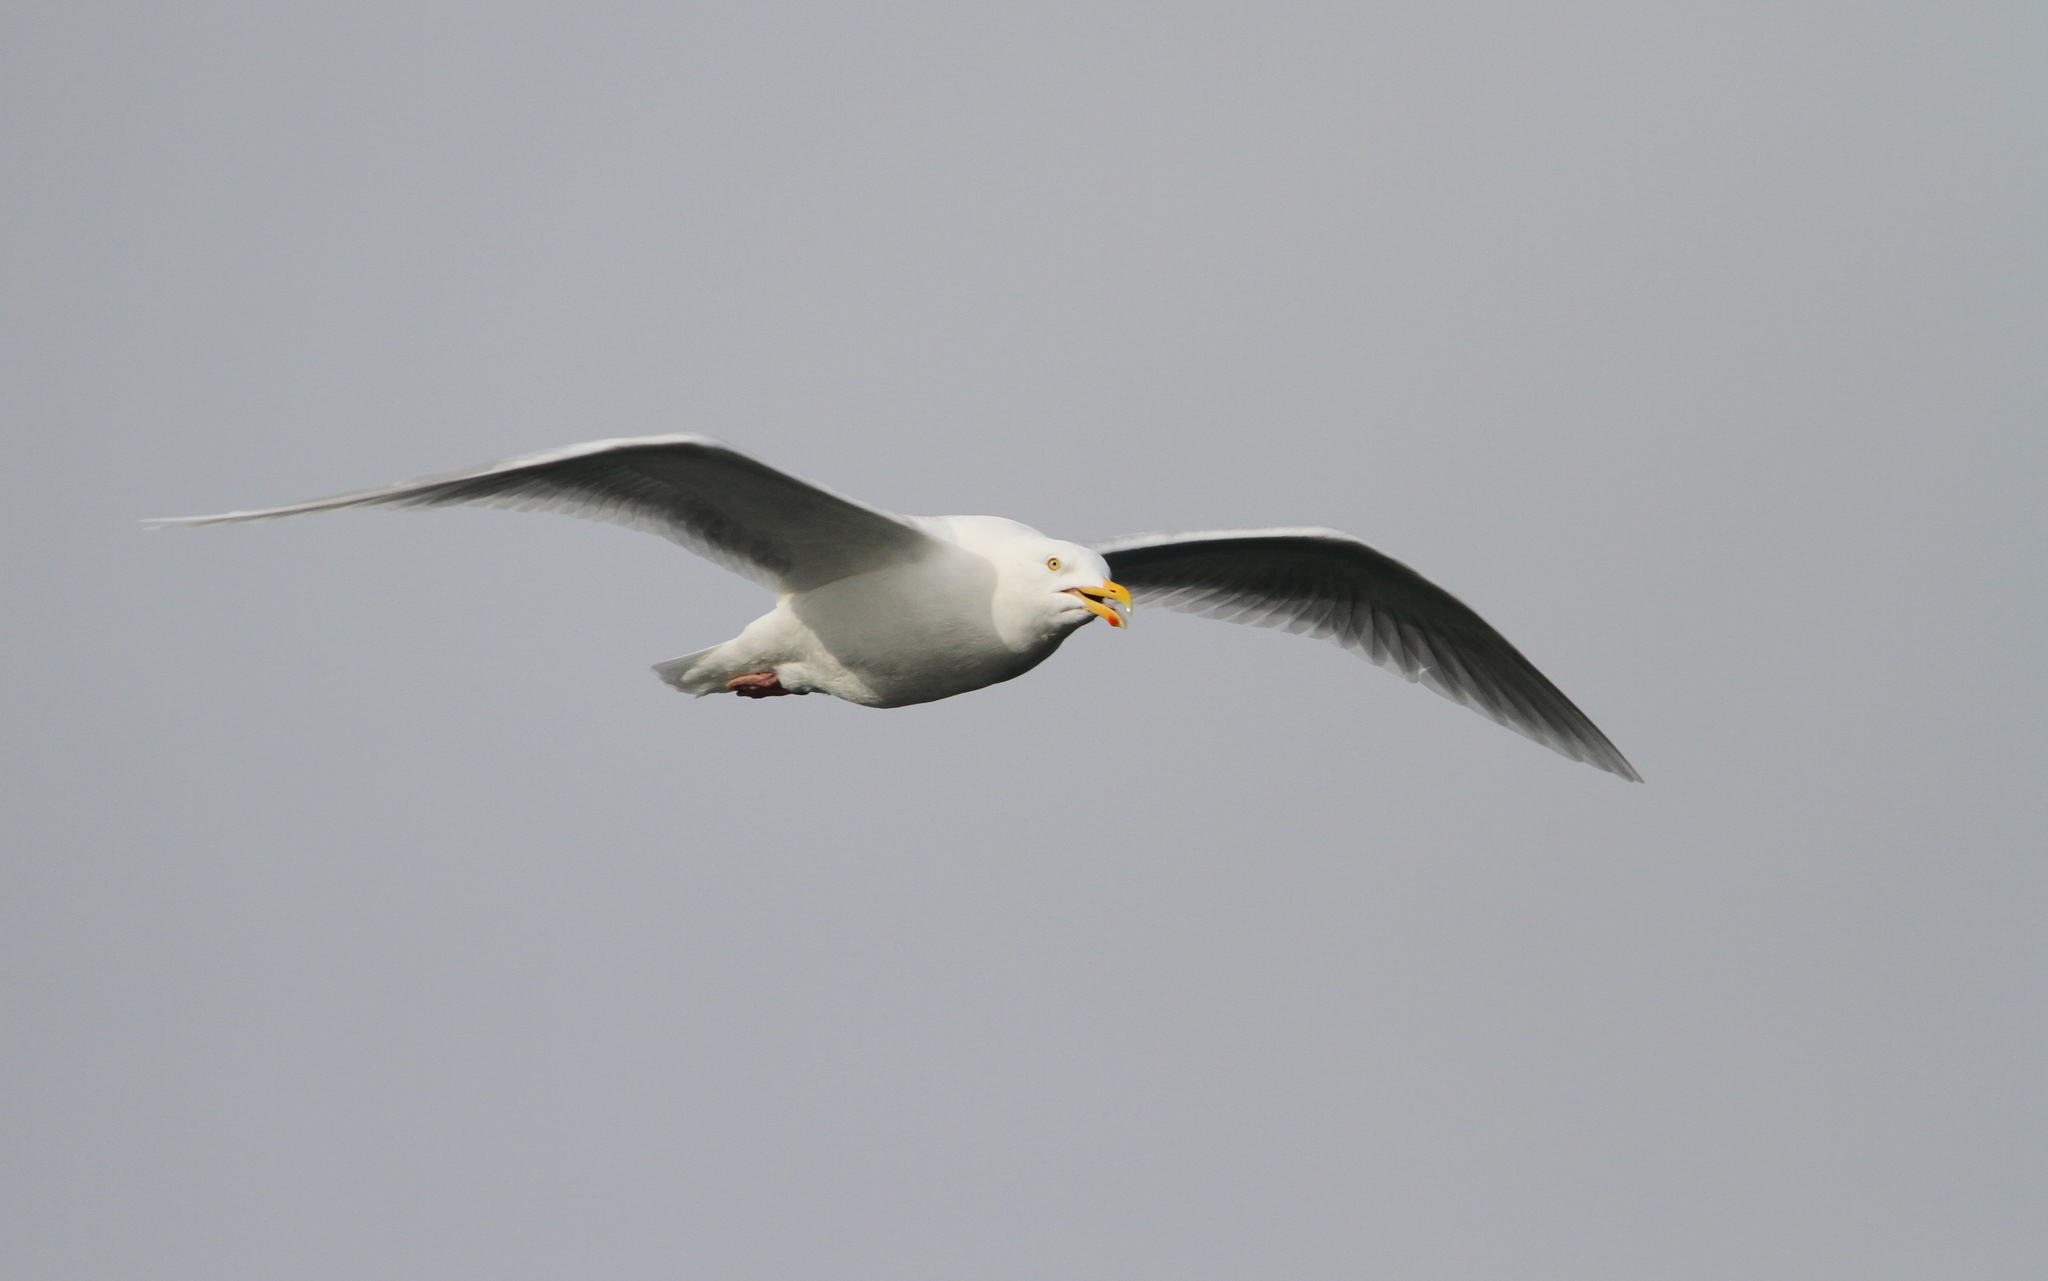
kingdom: Animalia
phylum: Chordata
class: Aves
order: Charadriiformes
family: Laridae
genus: Larus
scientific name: Larus hyperboreus
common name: Glaucous gull
